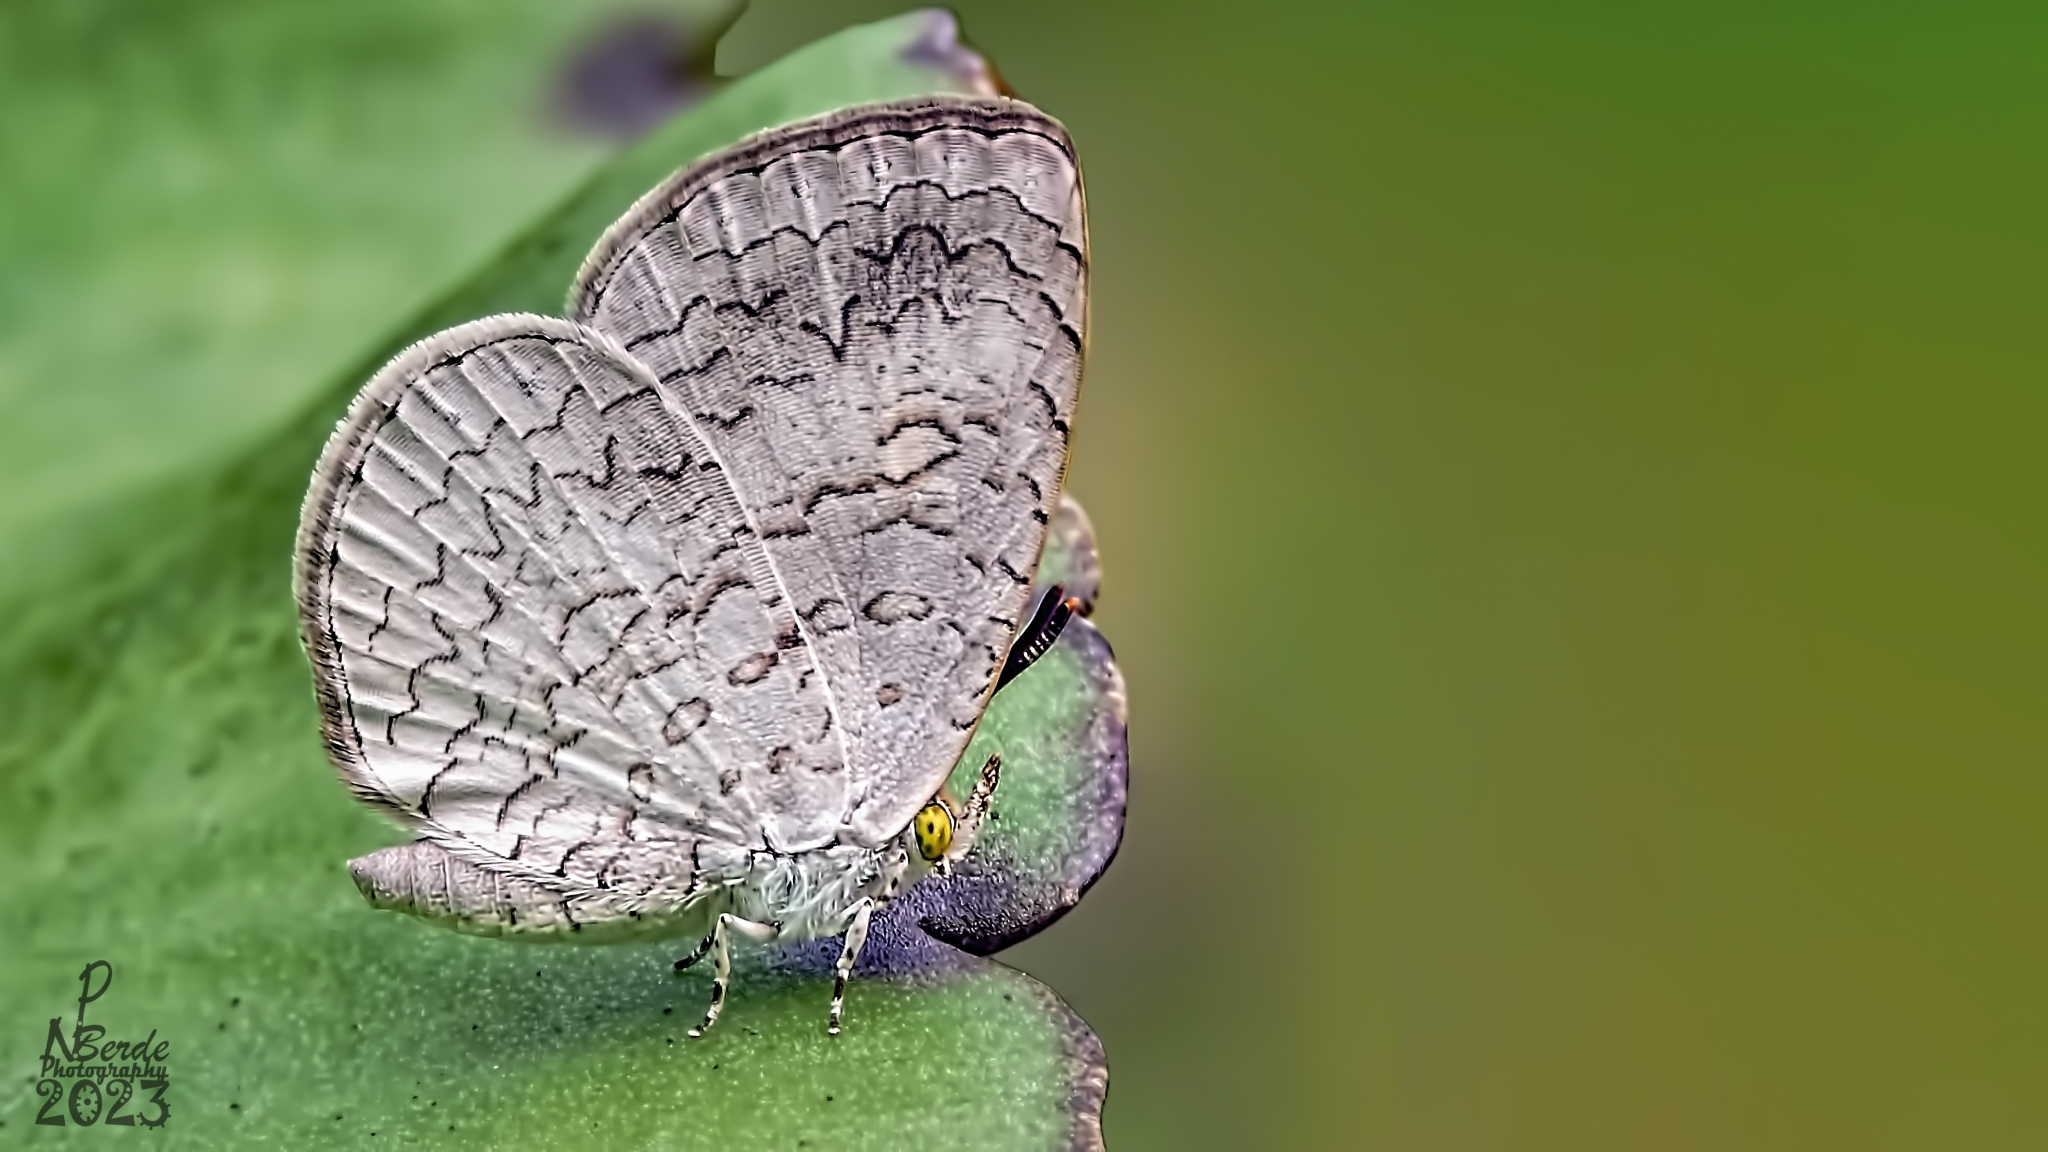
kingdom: Animalia
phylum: Arthropoda
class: Insecta
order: Lepidoptera
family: Lycaenidae
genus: Spalgis
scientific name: Spalgis epius
